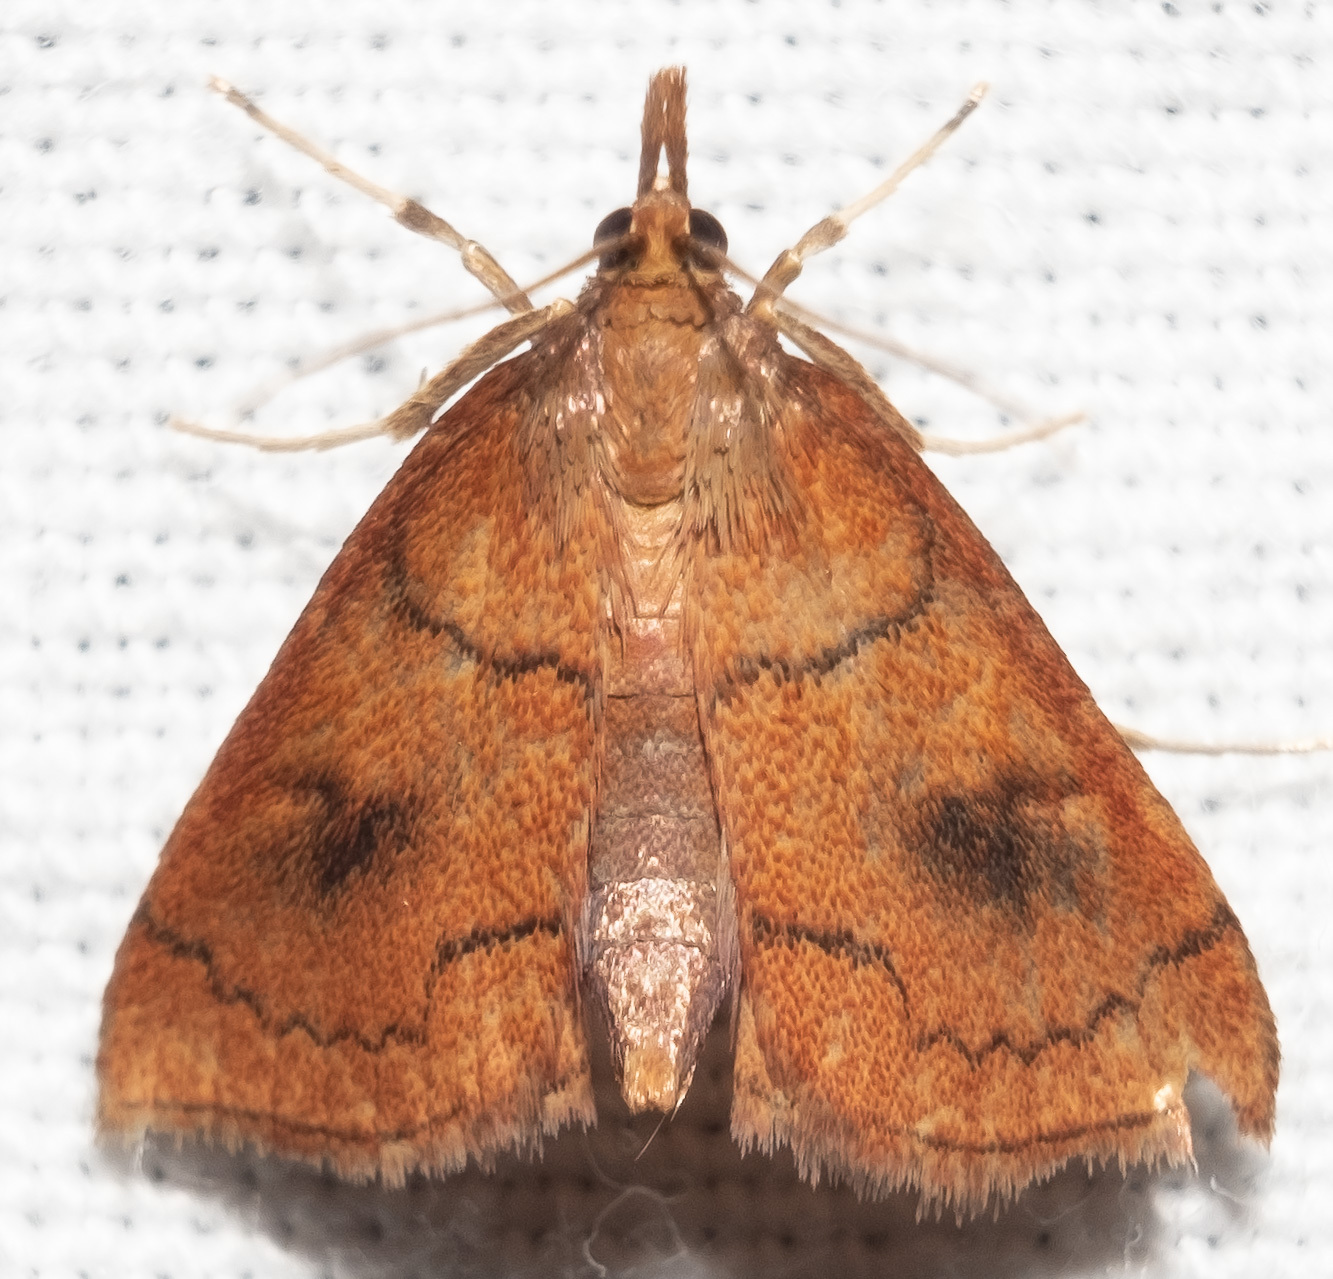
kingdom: Animalia
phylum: Arthropoda
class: Insecta
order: Lepidoptera
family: Crambidae
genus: Fumibotys
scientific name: Fumibotys fumalis
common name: Mint root borer moth
